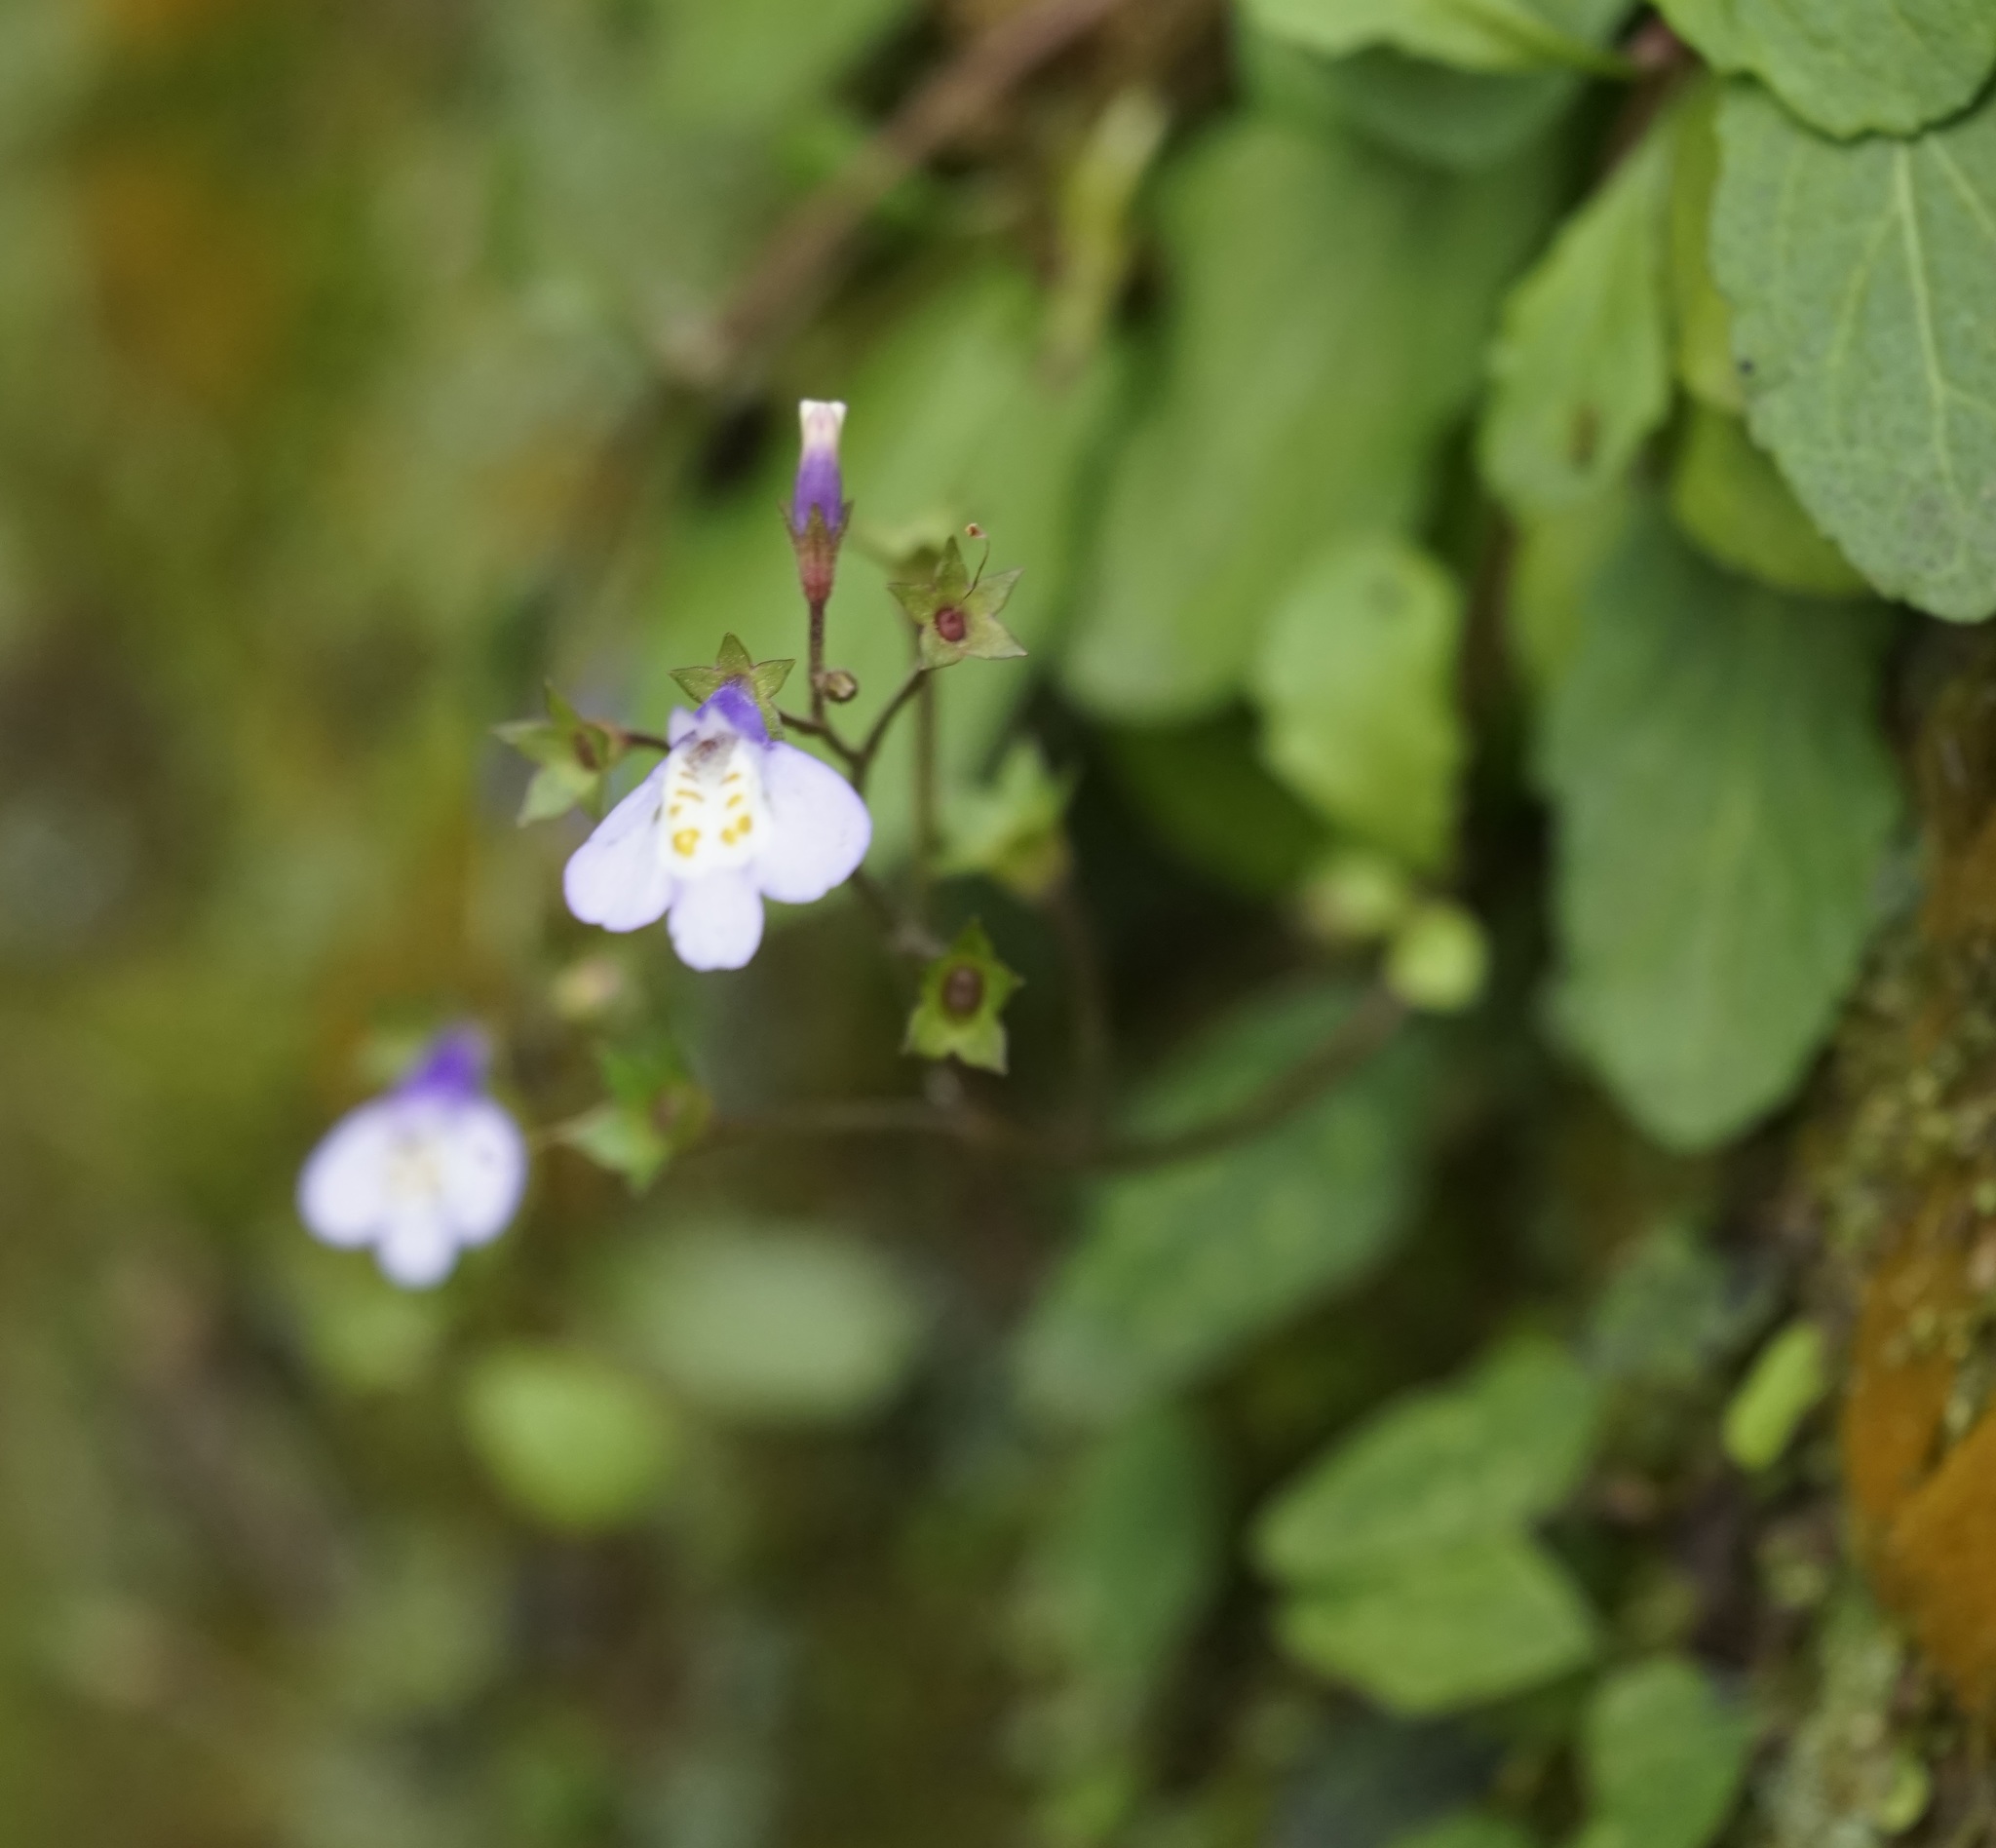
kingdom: Plantae
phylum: Tracheophyta
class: Magnoliopsida
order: Lamiales
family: Mazaceae
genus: Mazus
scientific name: Mazus fauriei
